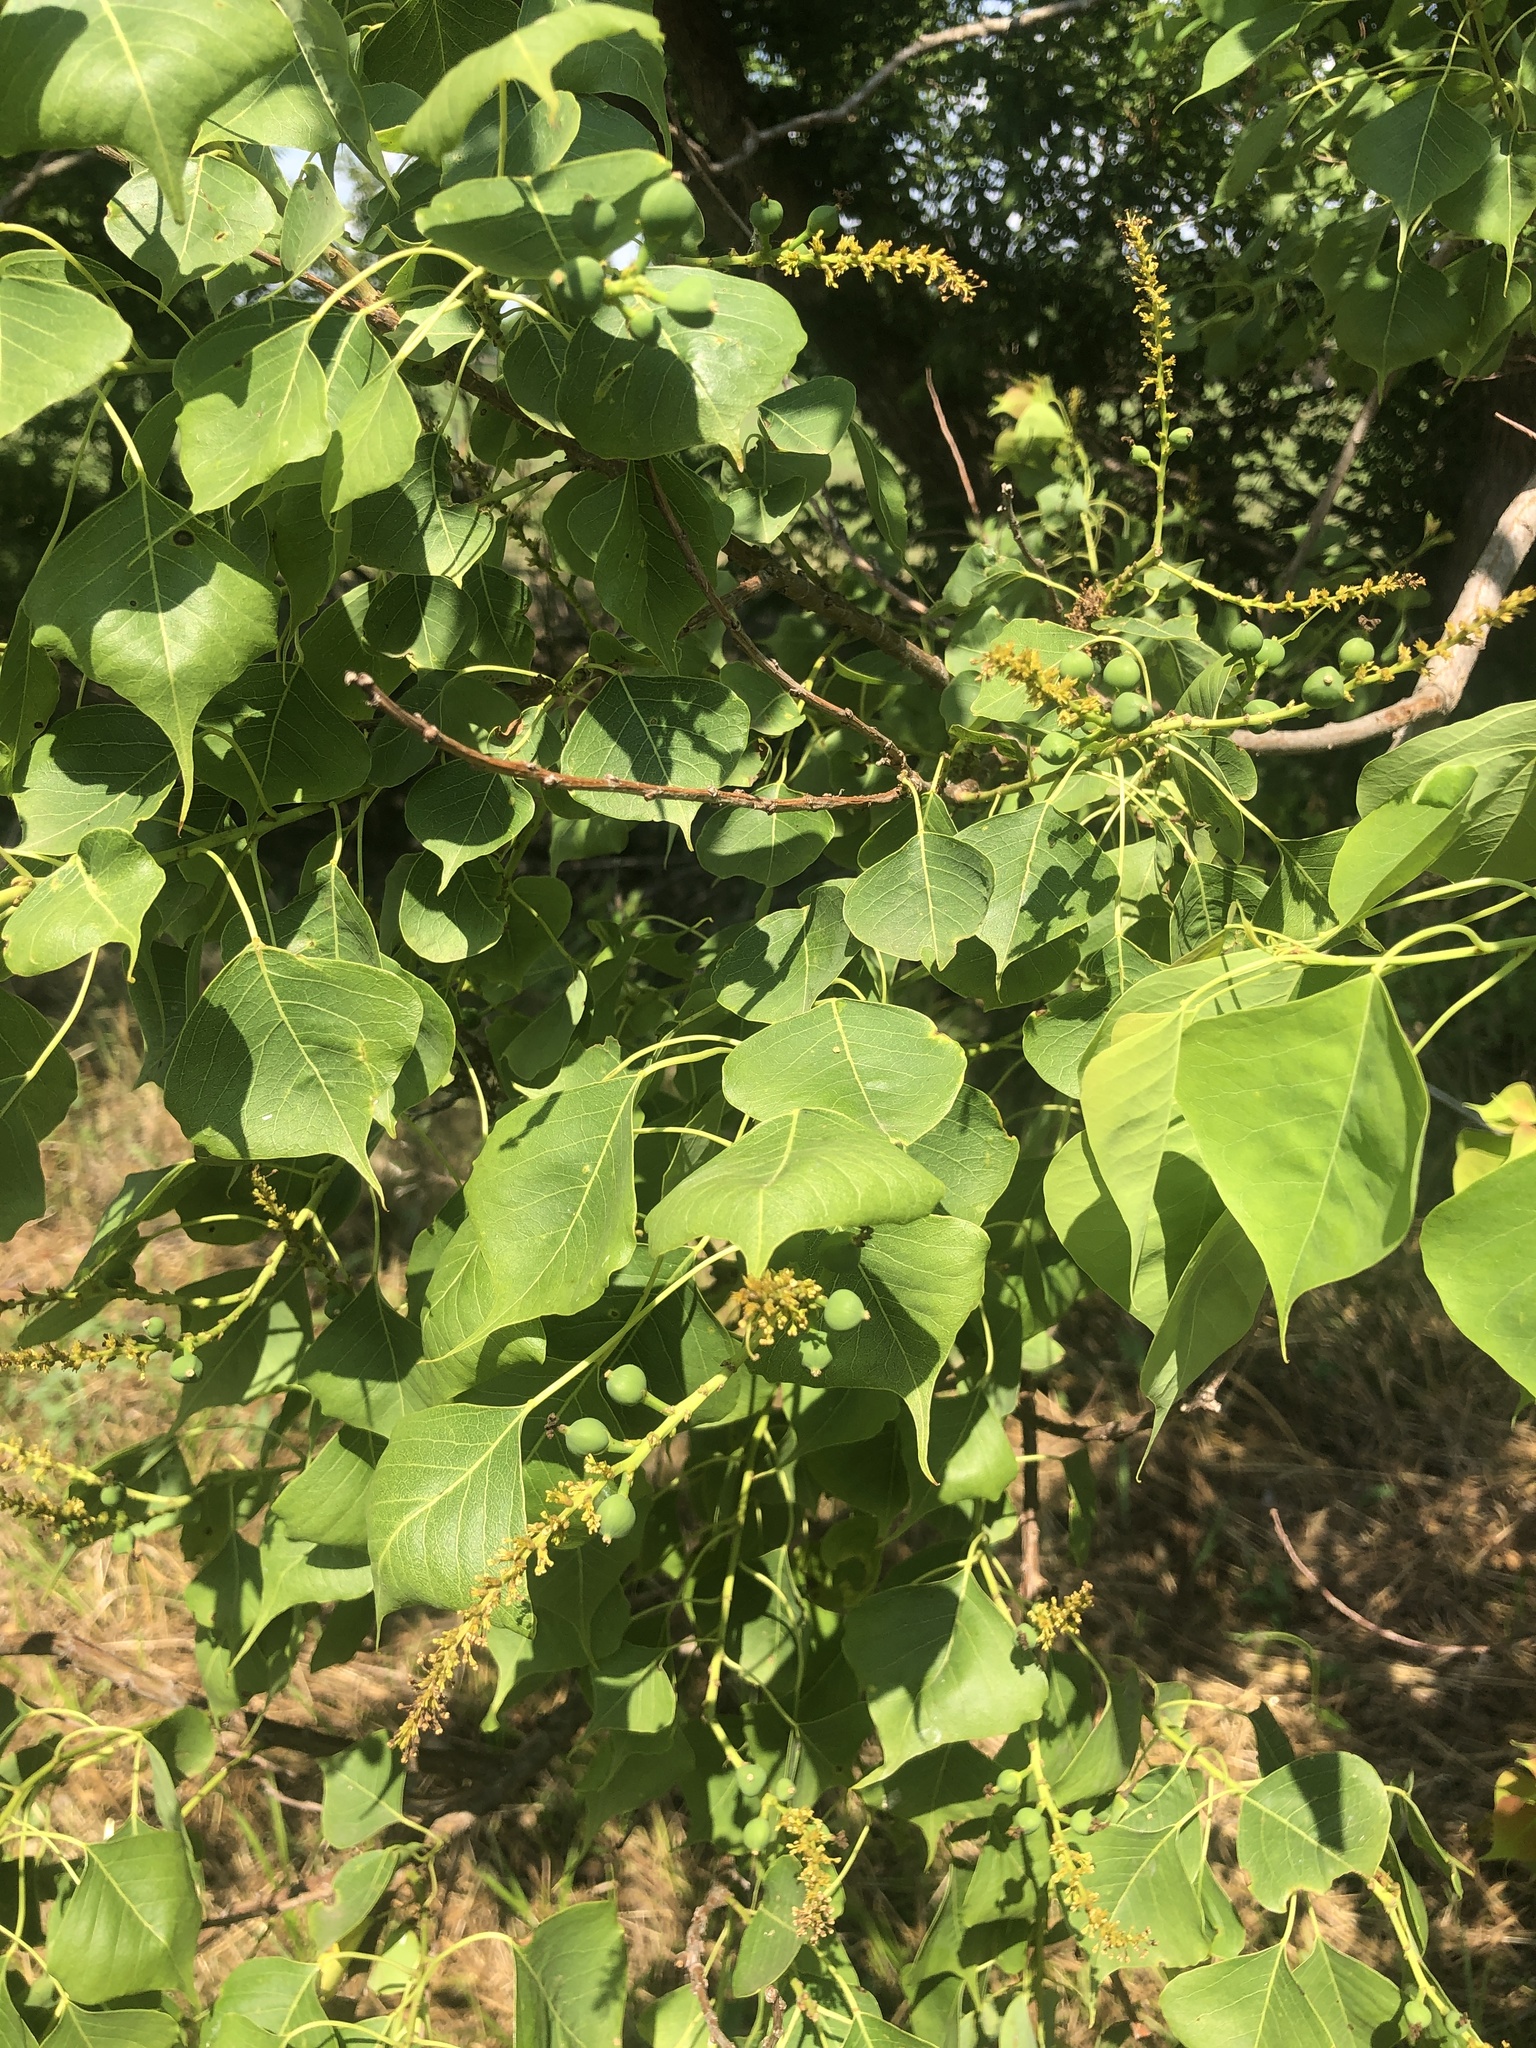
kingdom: Plantae
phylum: Tracheophyta
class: Magnoliopsida
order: Malpighiales
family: Euphorbiaceae
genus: Triadica
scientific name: Triadica sebifera
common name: Chinese tallow
